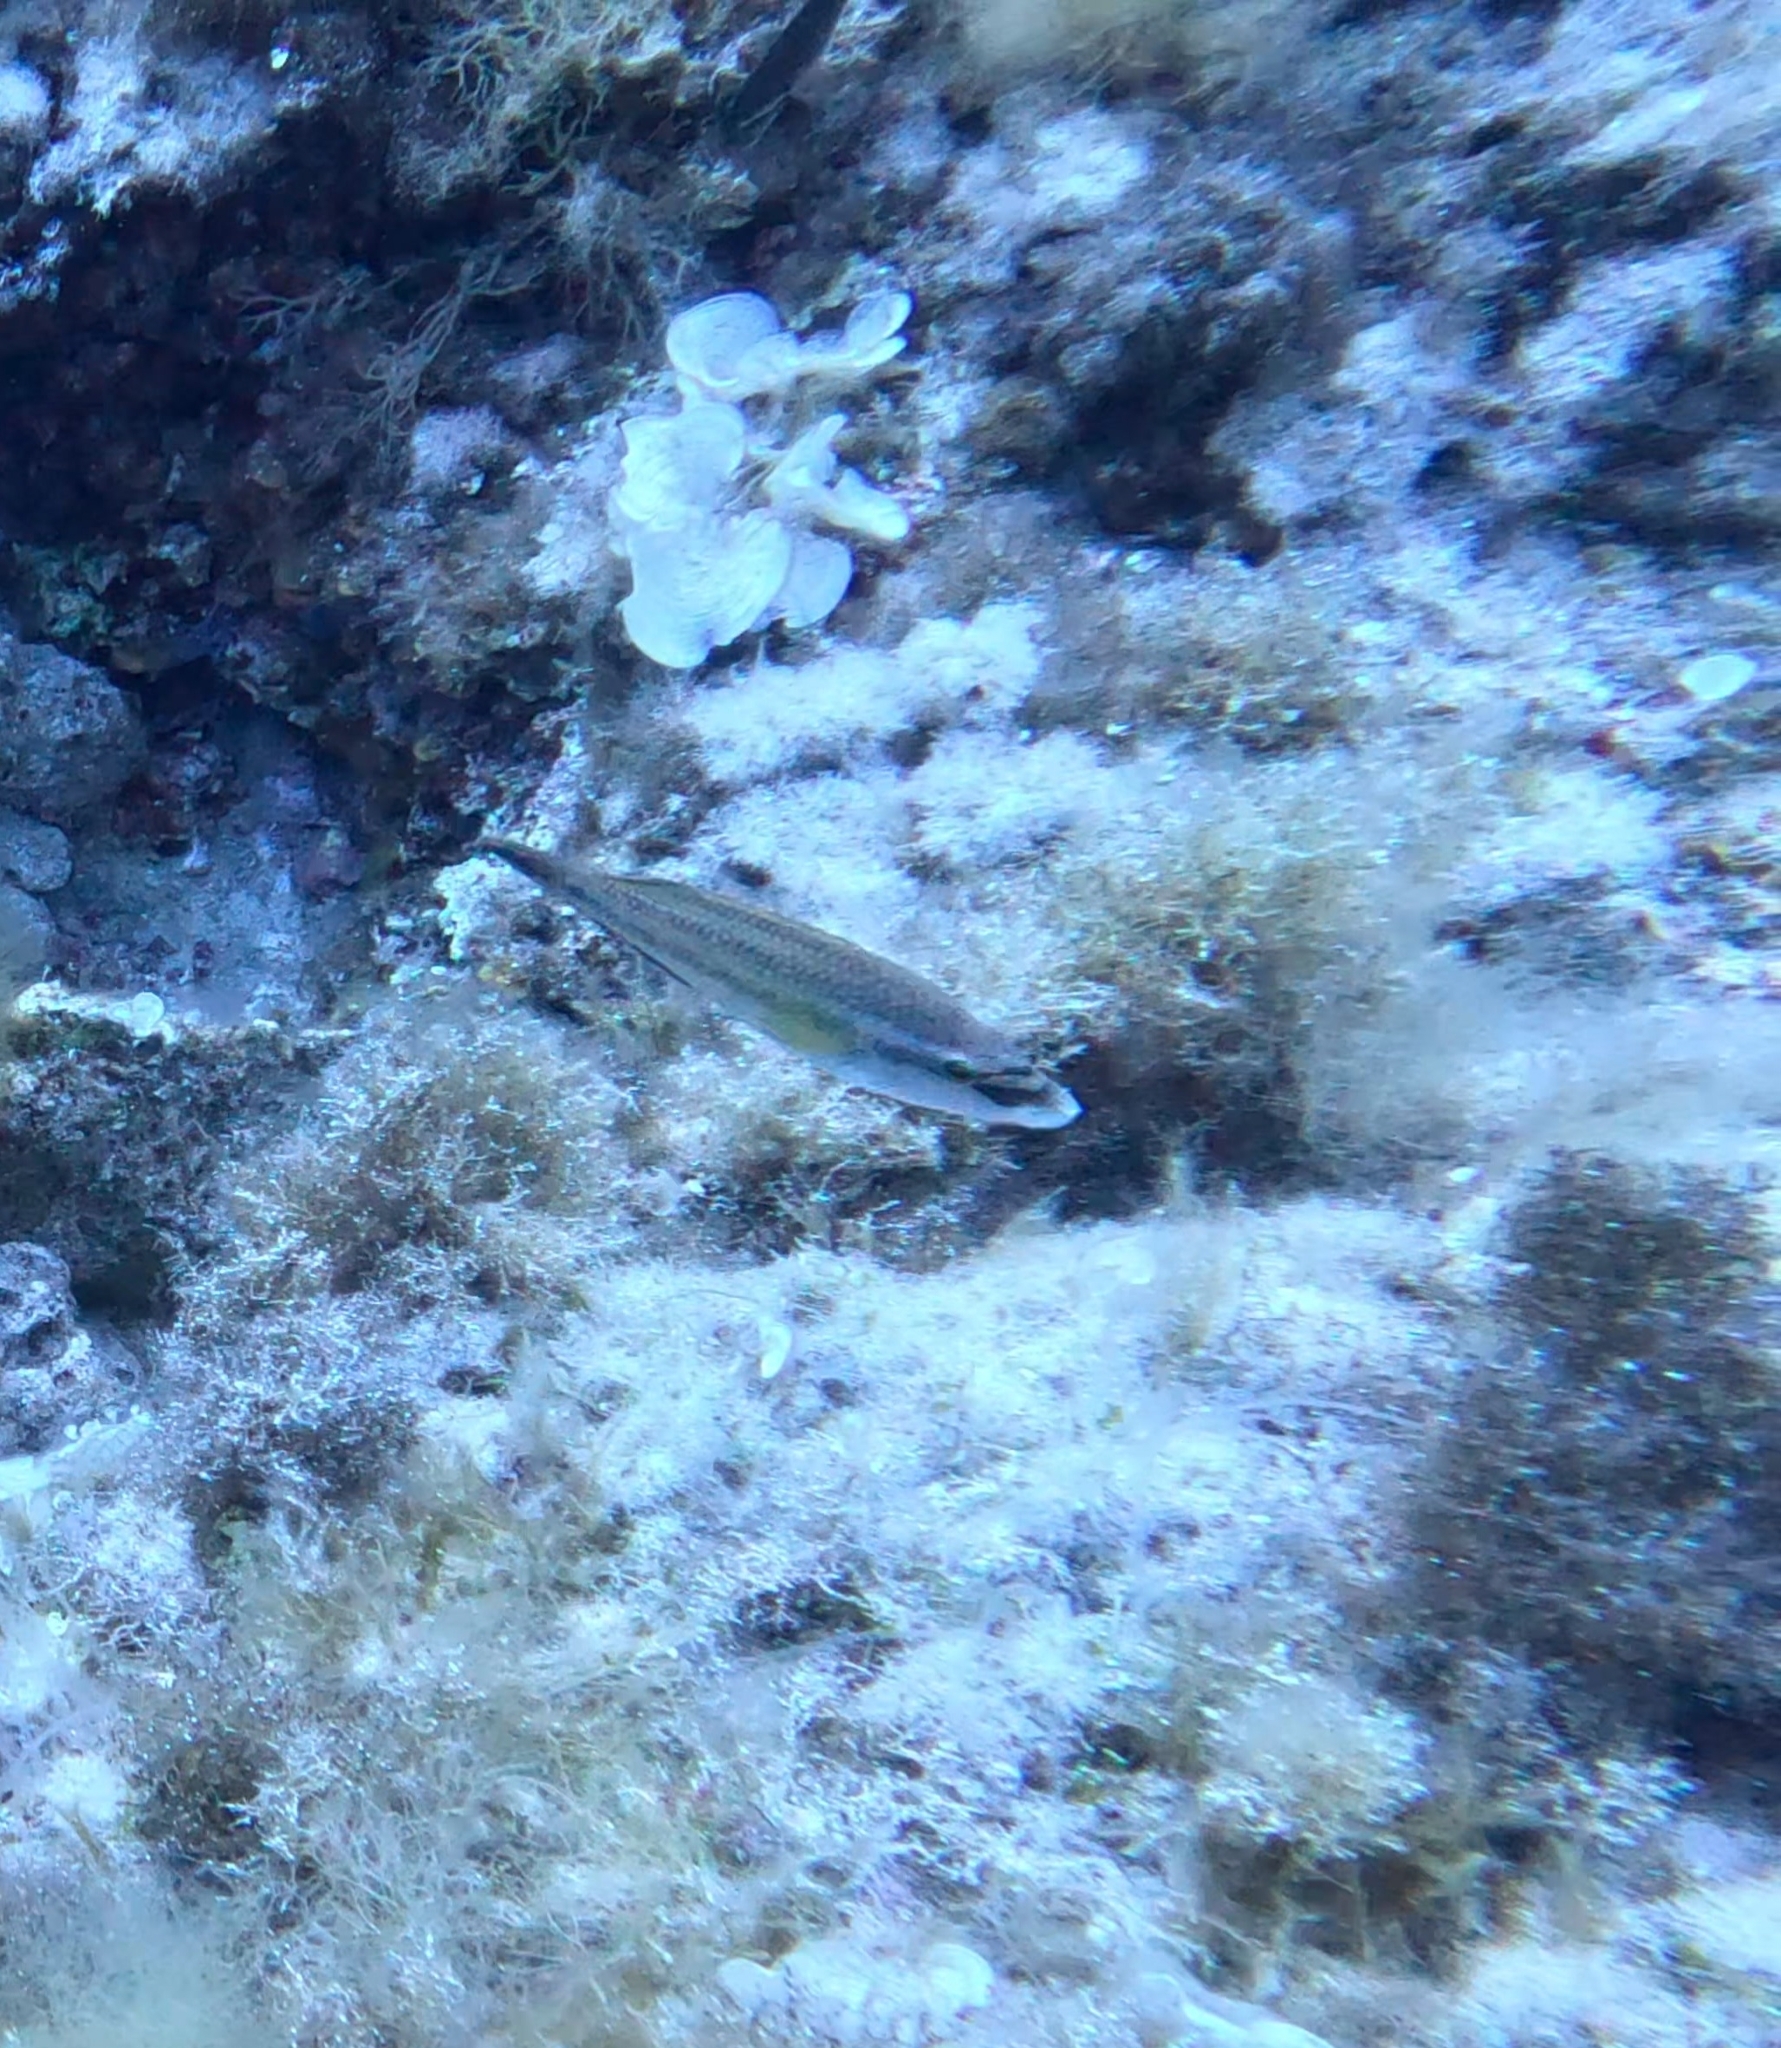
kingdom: Animalia
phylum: Chordata
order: Perciformes
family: Labridae
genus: Symphodus
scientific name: Symphodus tinca
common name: Peacock wrasse
